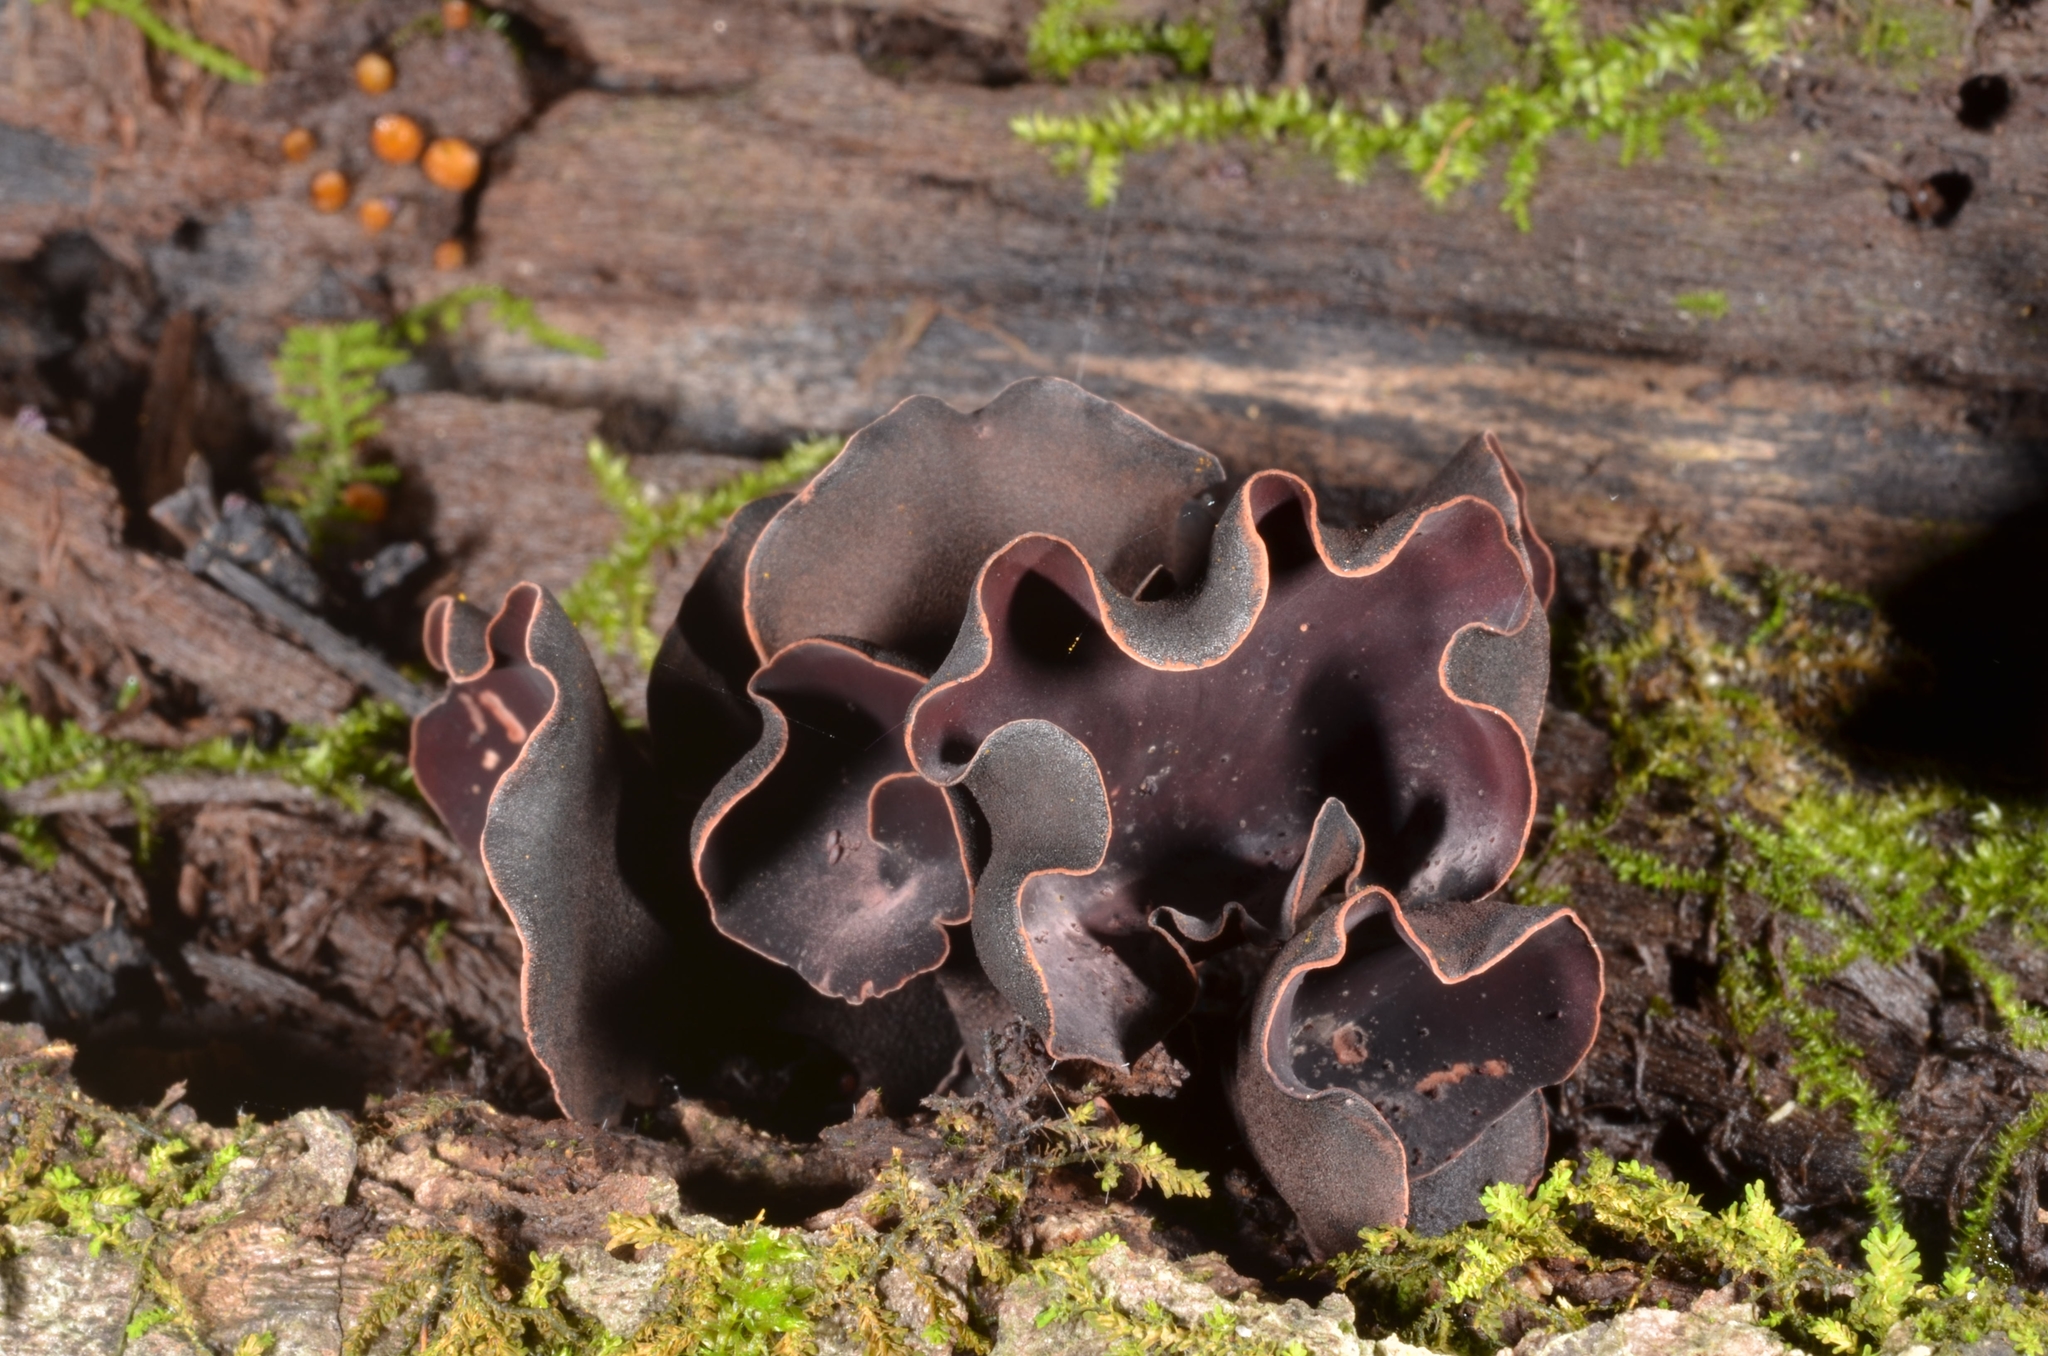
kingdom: Fungi
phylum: Ascomycota
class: Leotiomycetes
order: Helotiales
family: Cordieritidaceae
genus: Ionomidotis
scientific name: Ionomidotis sprucei
